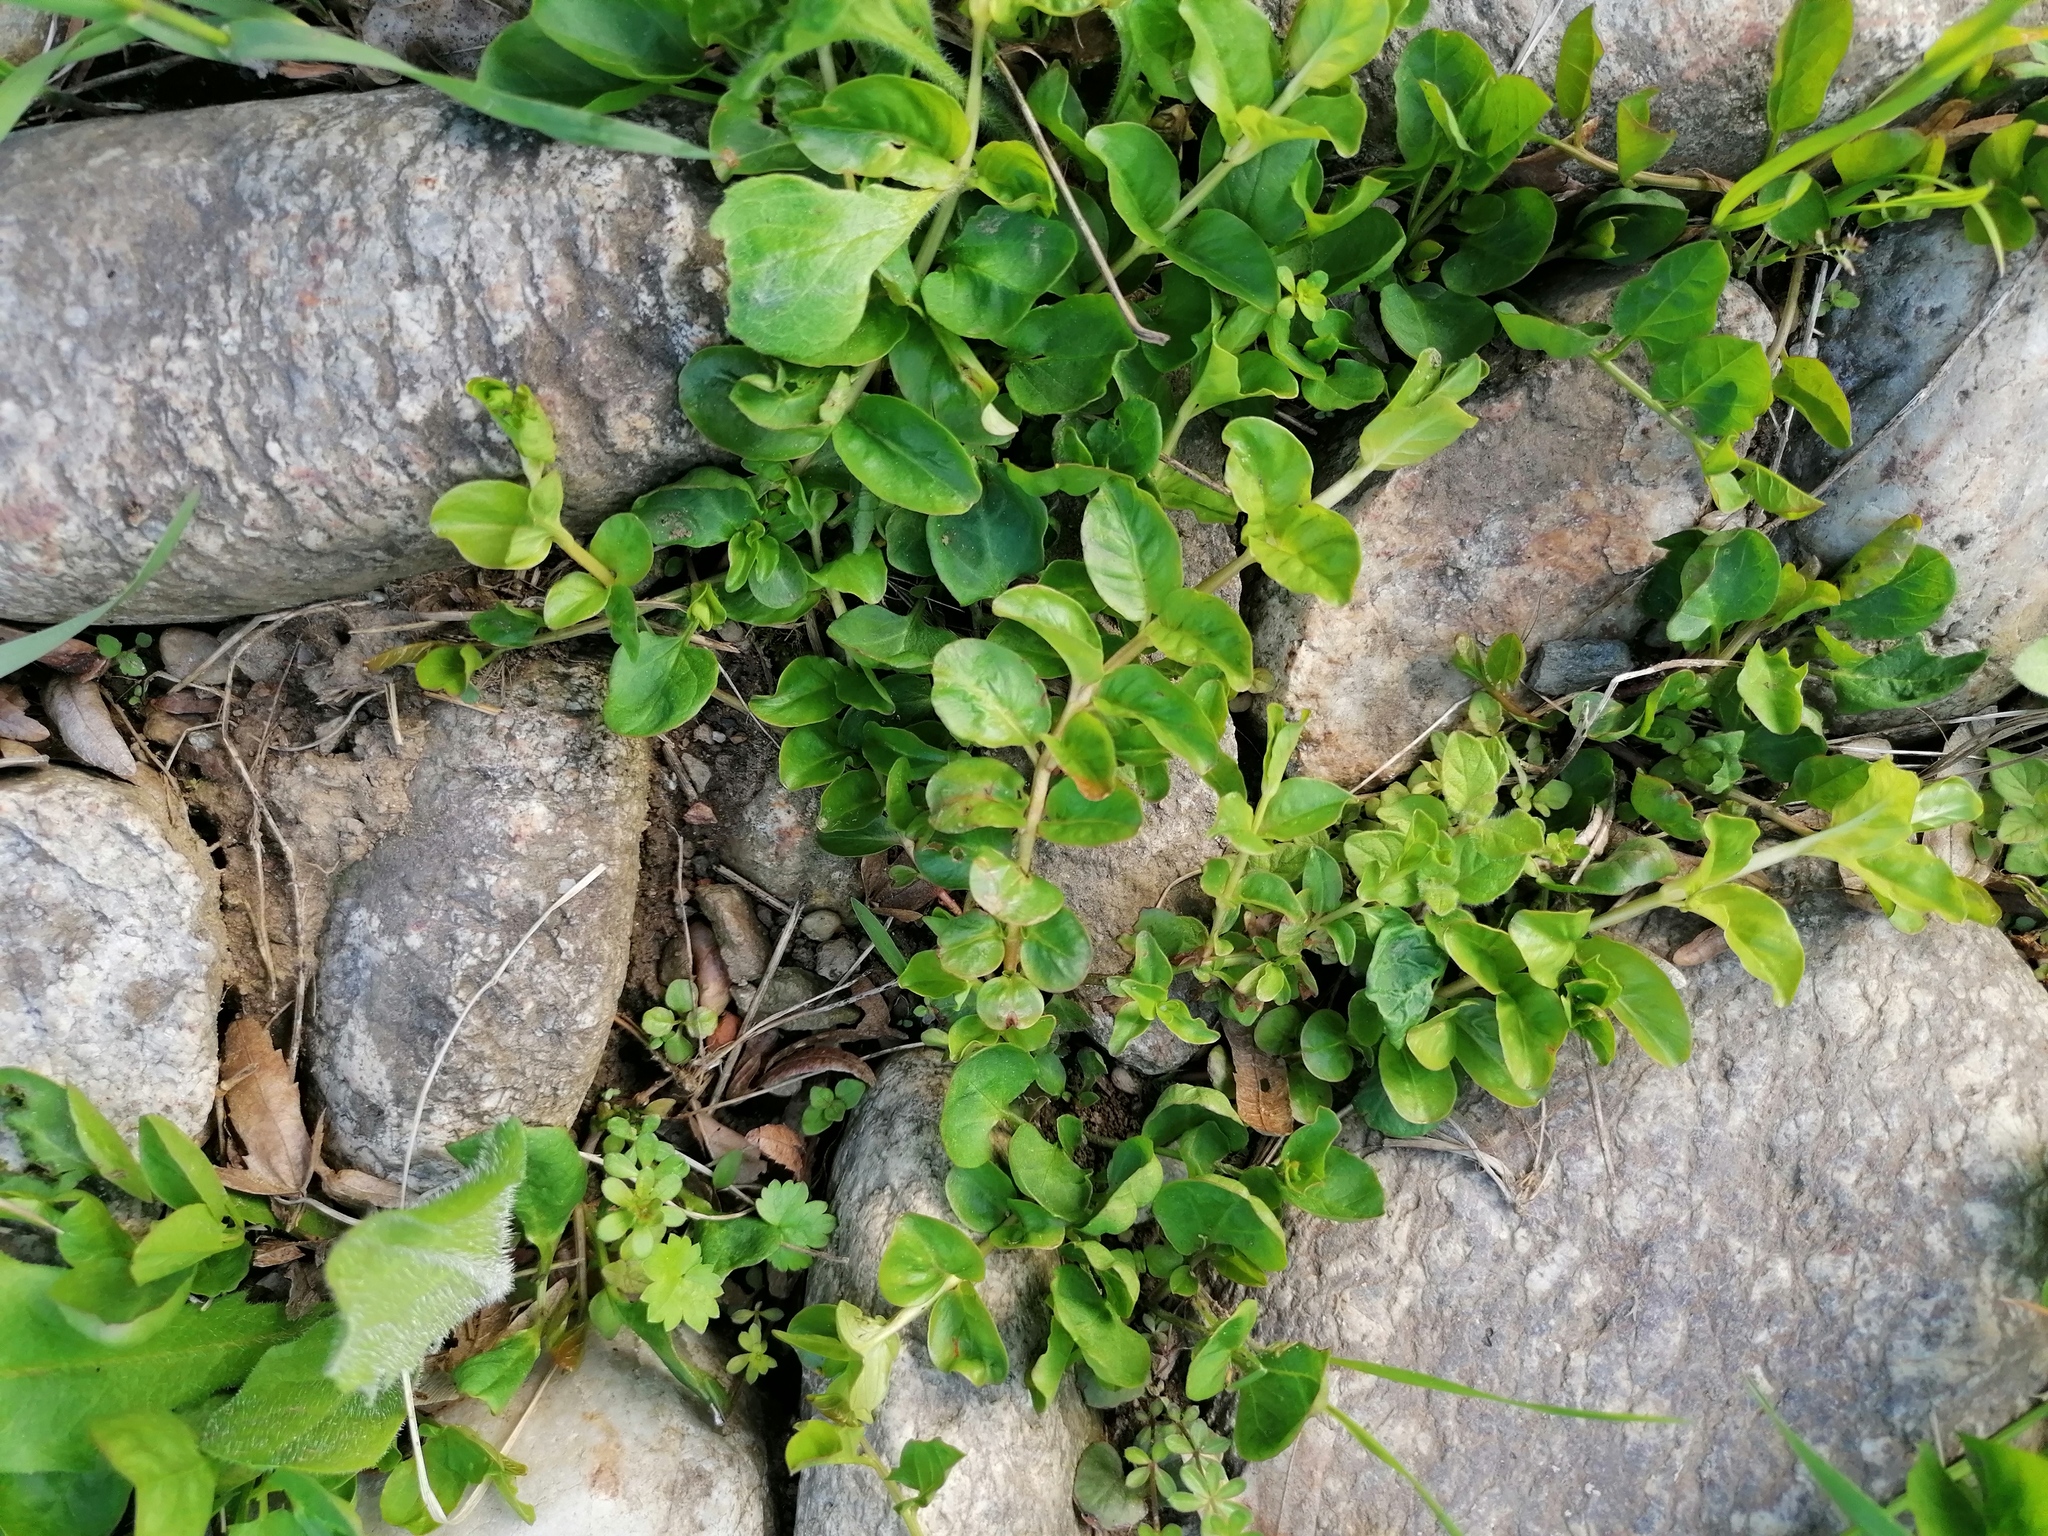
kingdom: Plantae
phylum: Tracheophyta
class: Magnoliopsida
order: Ericales
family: Primulaceae
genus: Lysimachia
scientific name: Lysimachia nummularia
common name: Moneywort
